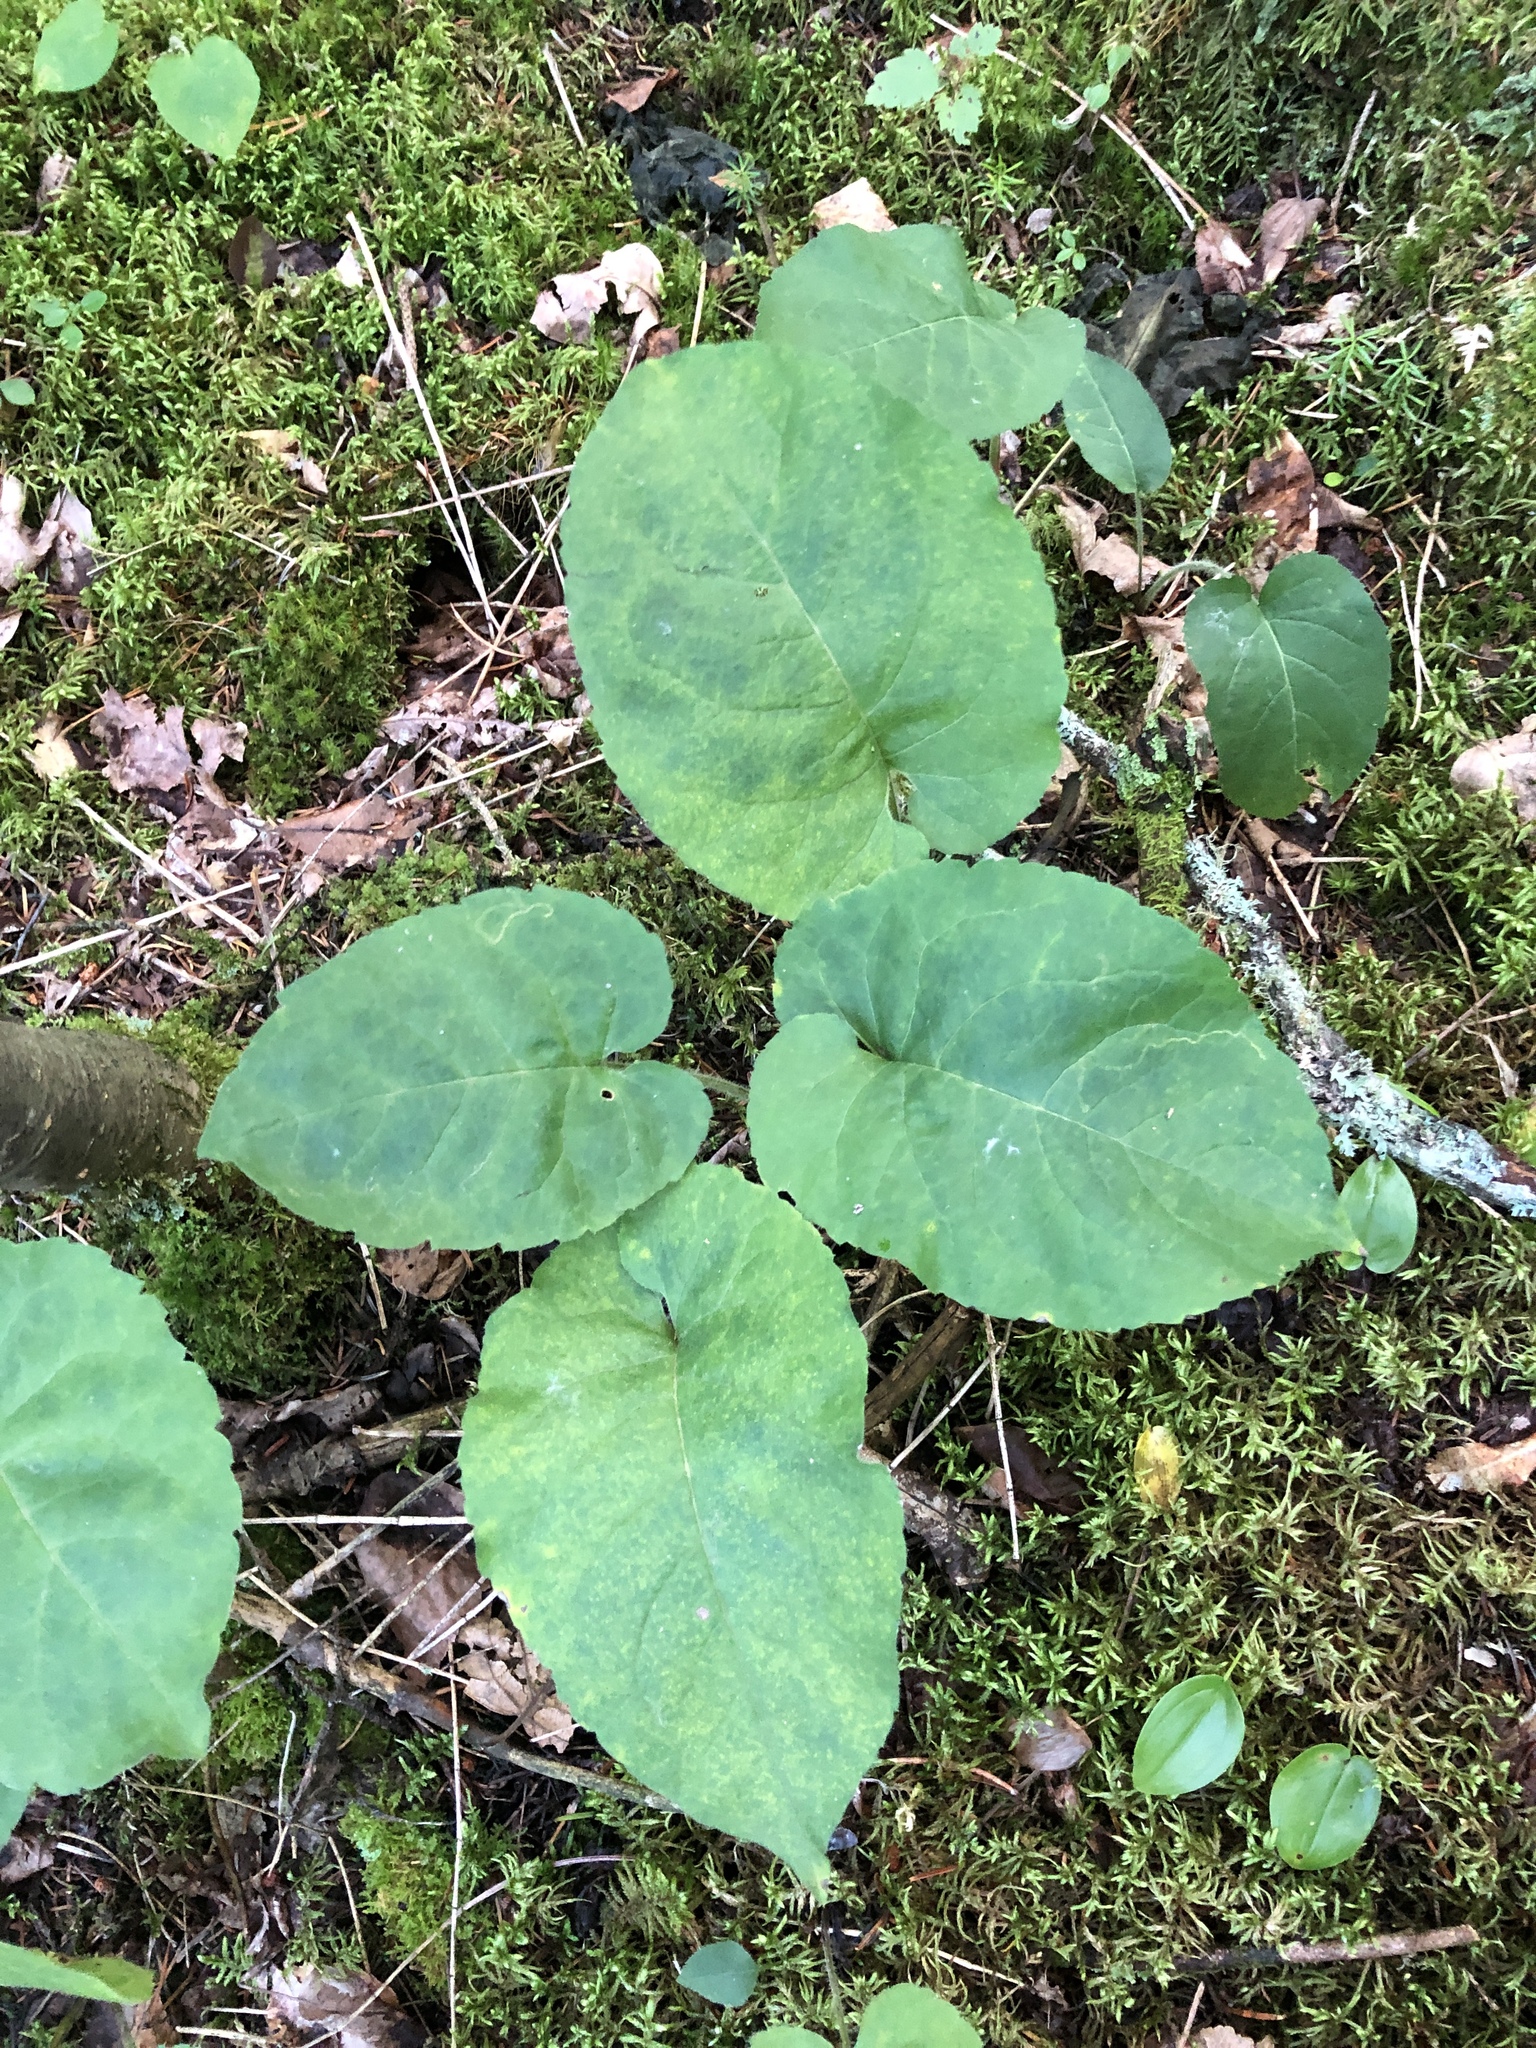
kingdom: Plantae
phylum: Tracheophyta
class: Magnoliopsida
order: Asterales
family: Asteraceae
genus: Eurybia
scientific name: Eurybia macrophylla
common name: Big-leaved aster
